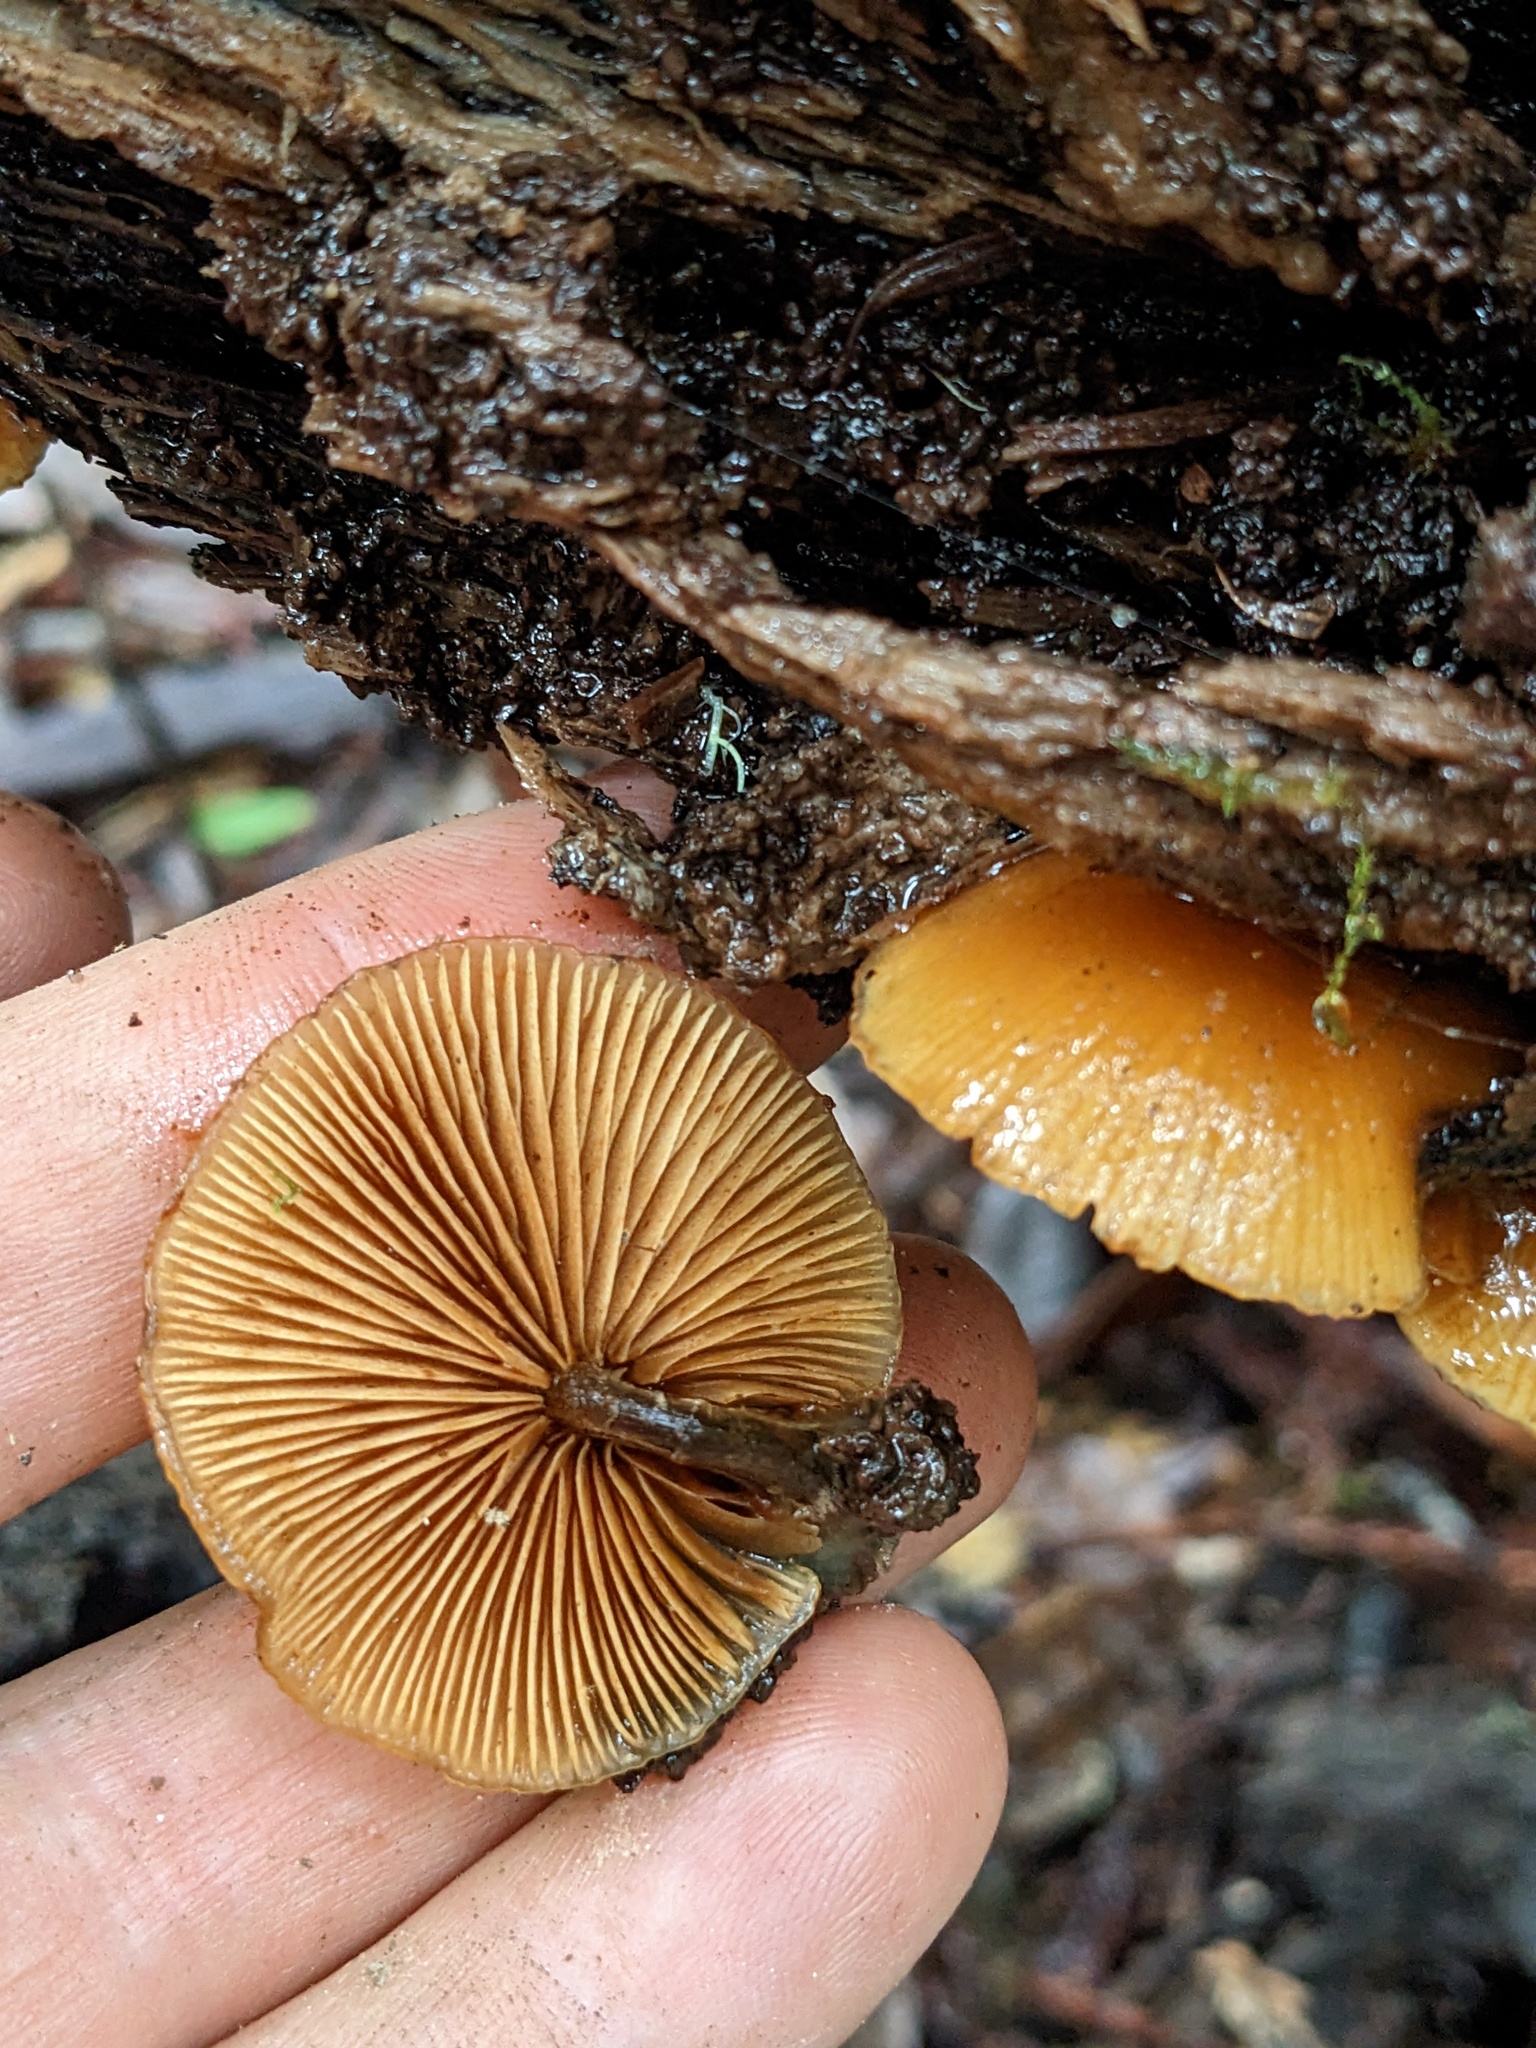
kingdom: Fungi
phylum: Basidiomycota
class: Agaricomycetes
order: Agaricales
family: Hymenogastraceae
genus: Galerina
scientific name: Galerina marginata
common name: Funeral bell
